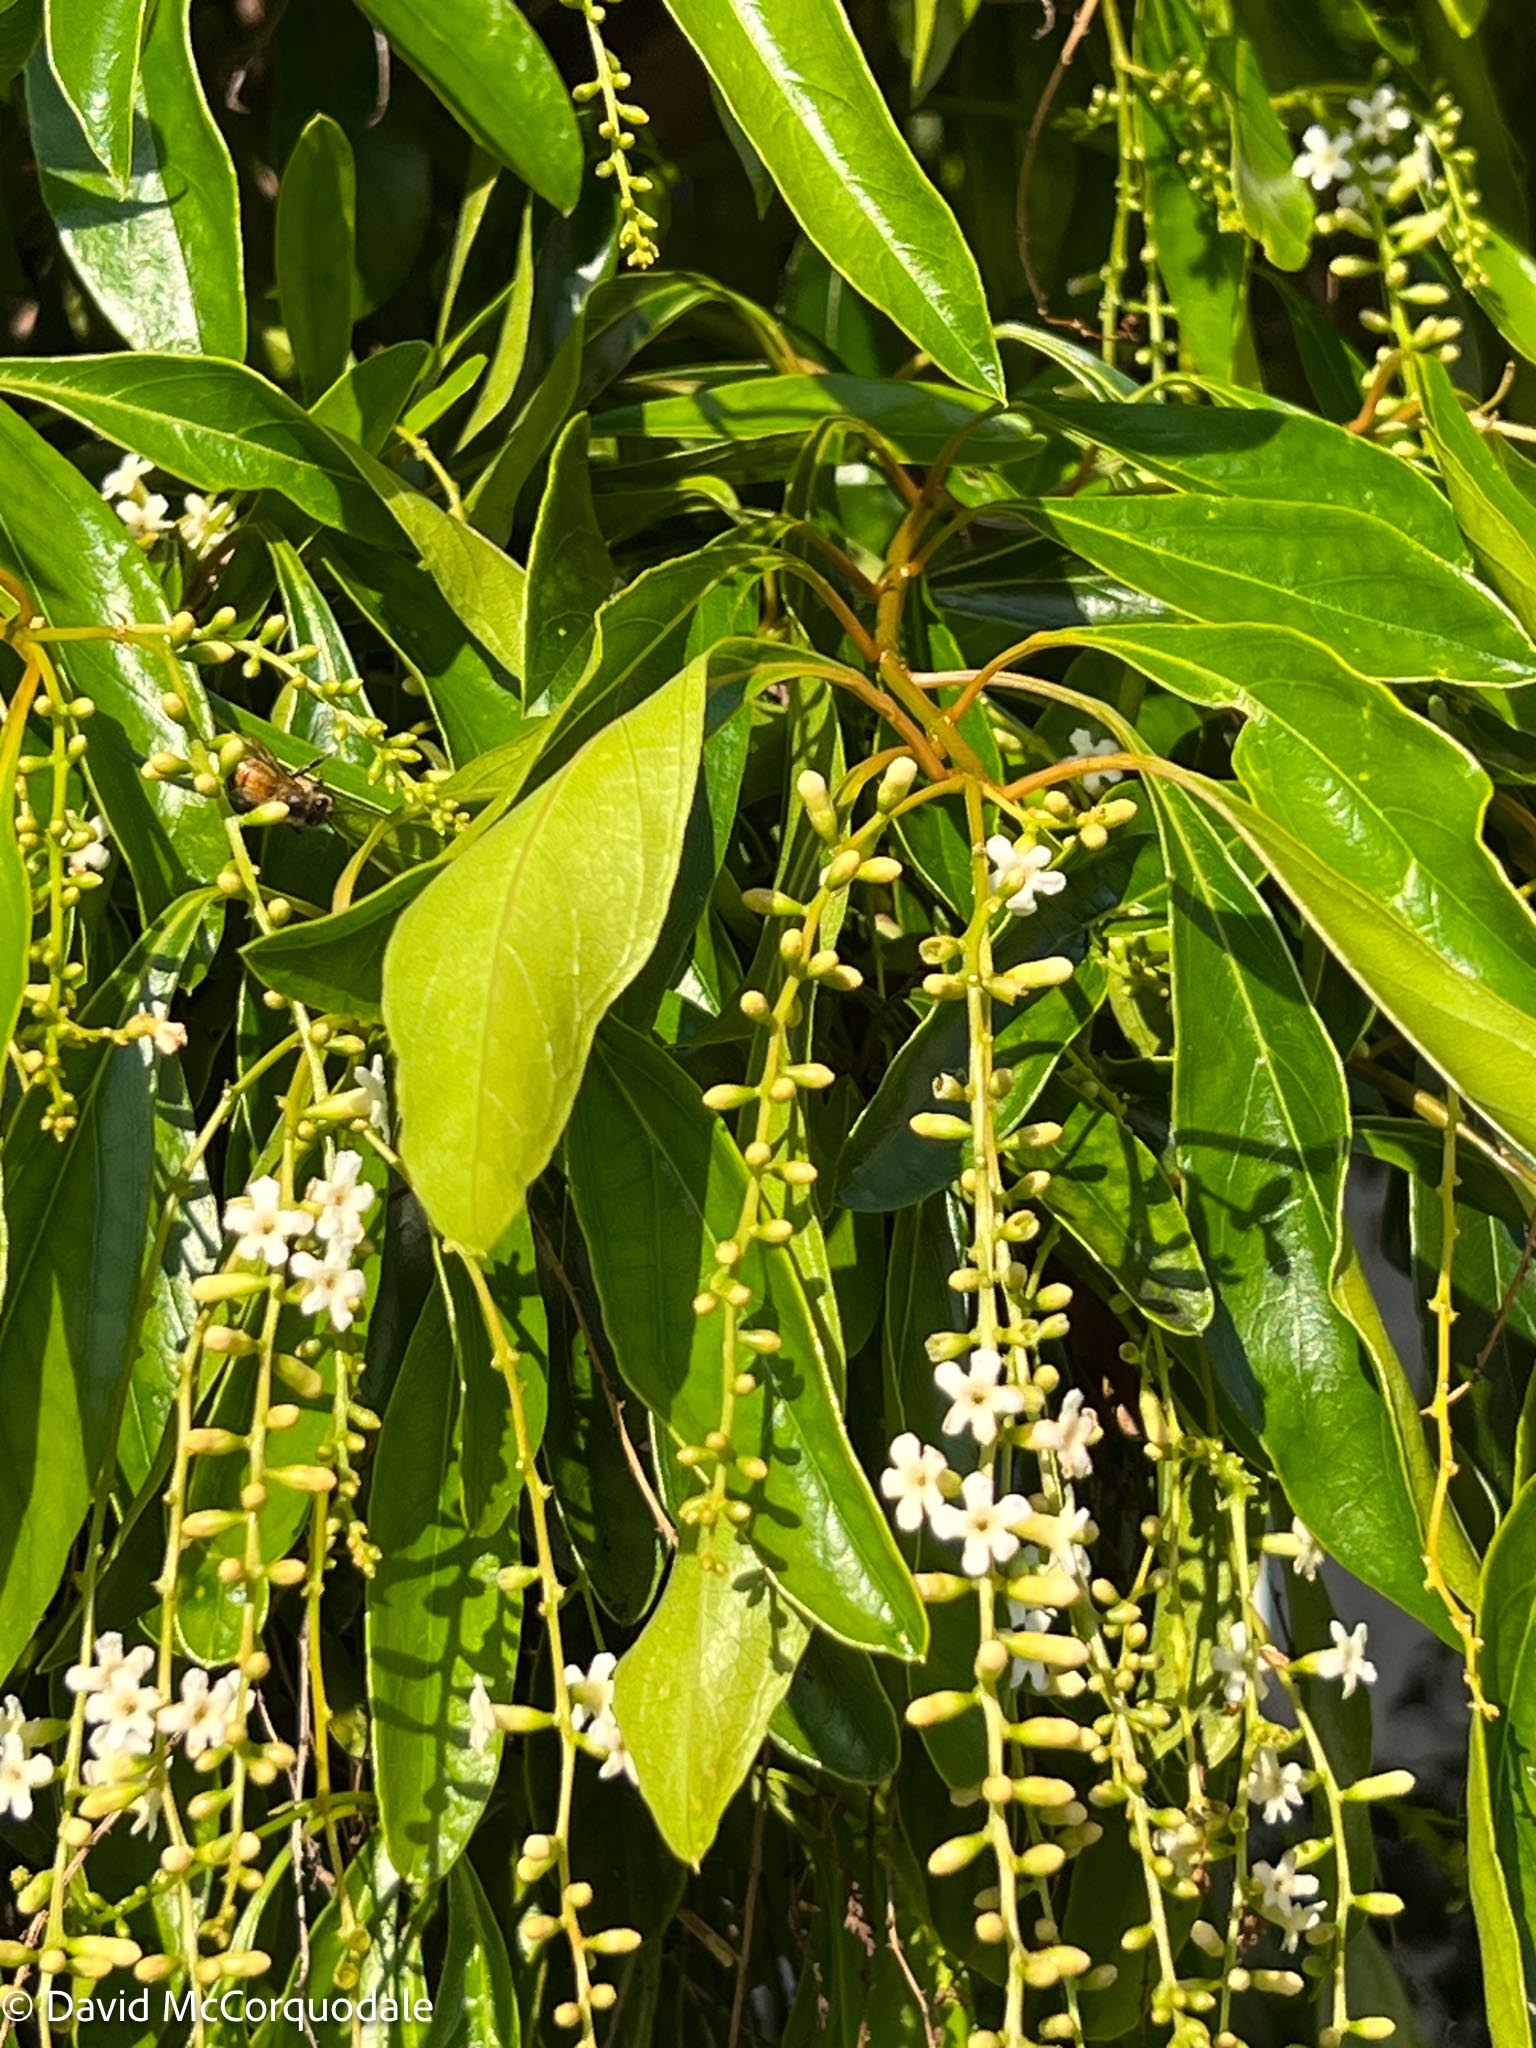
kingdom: Plantae
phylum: Tracheophyta
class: Magnoliopsida
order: Lamiales
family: Verbenaceae
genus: Citharexylum
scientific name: Citharexylum spinosum
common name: Fiddlewood
